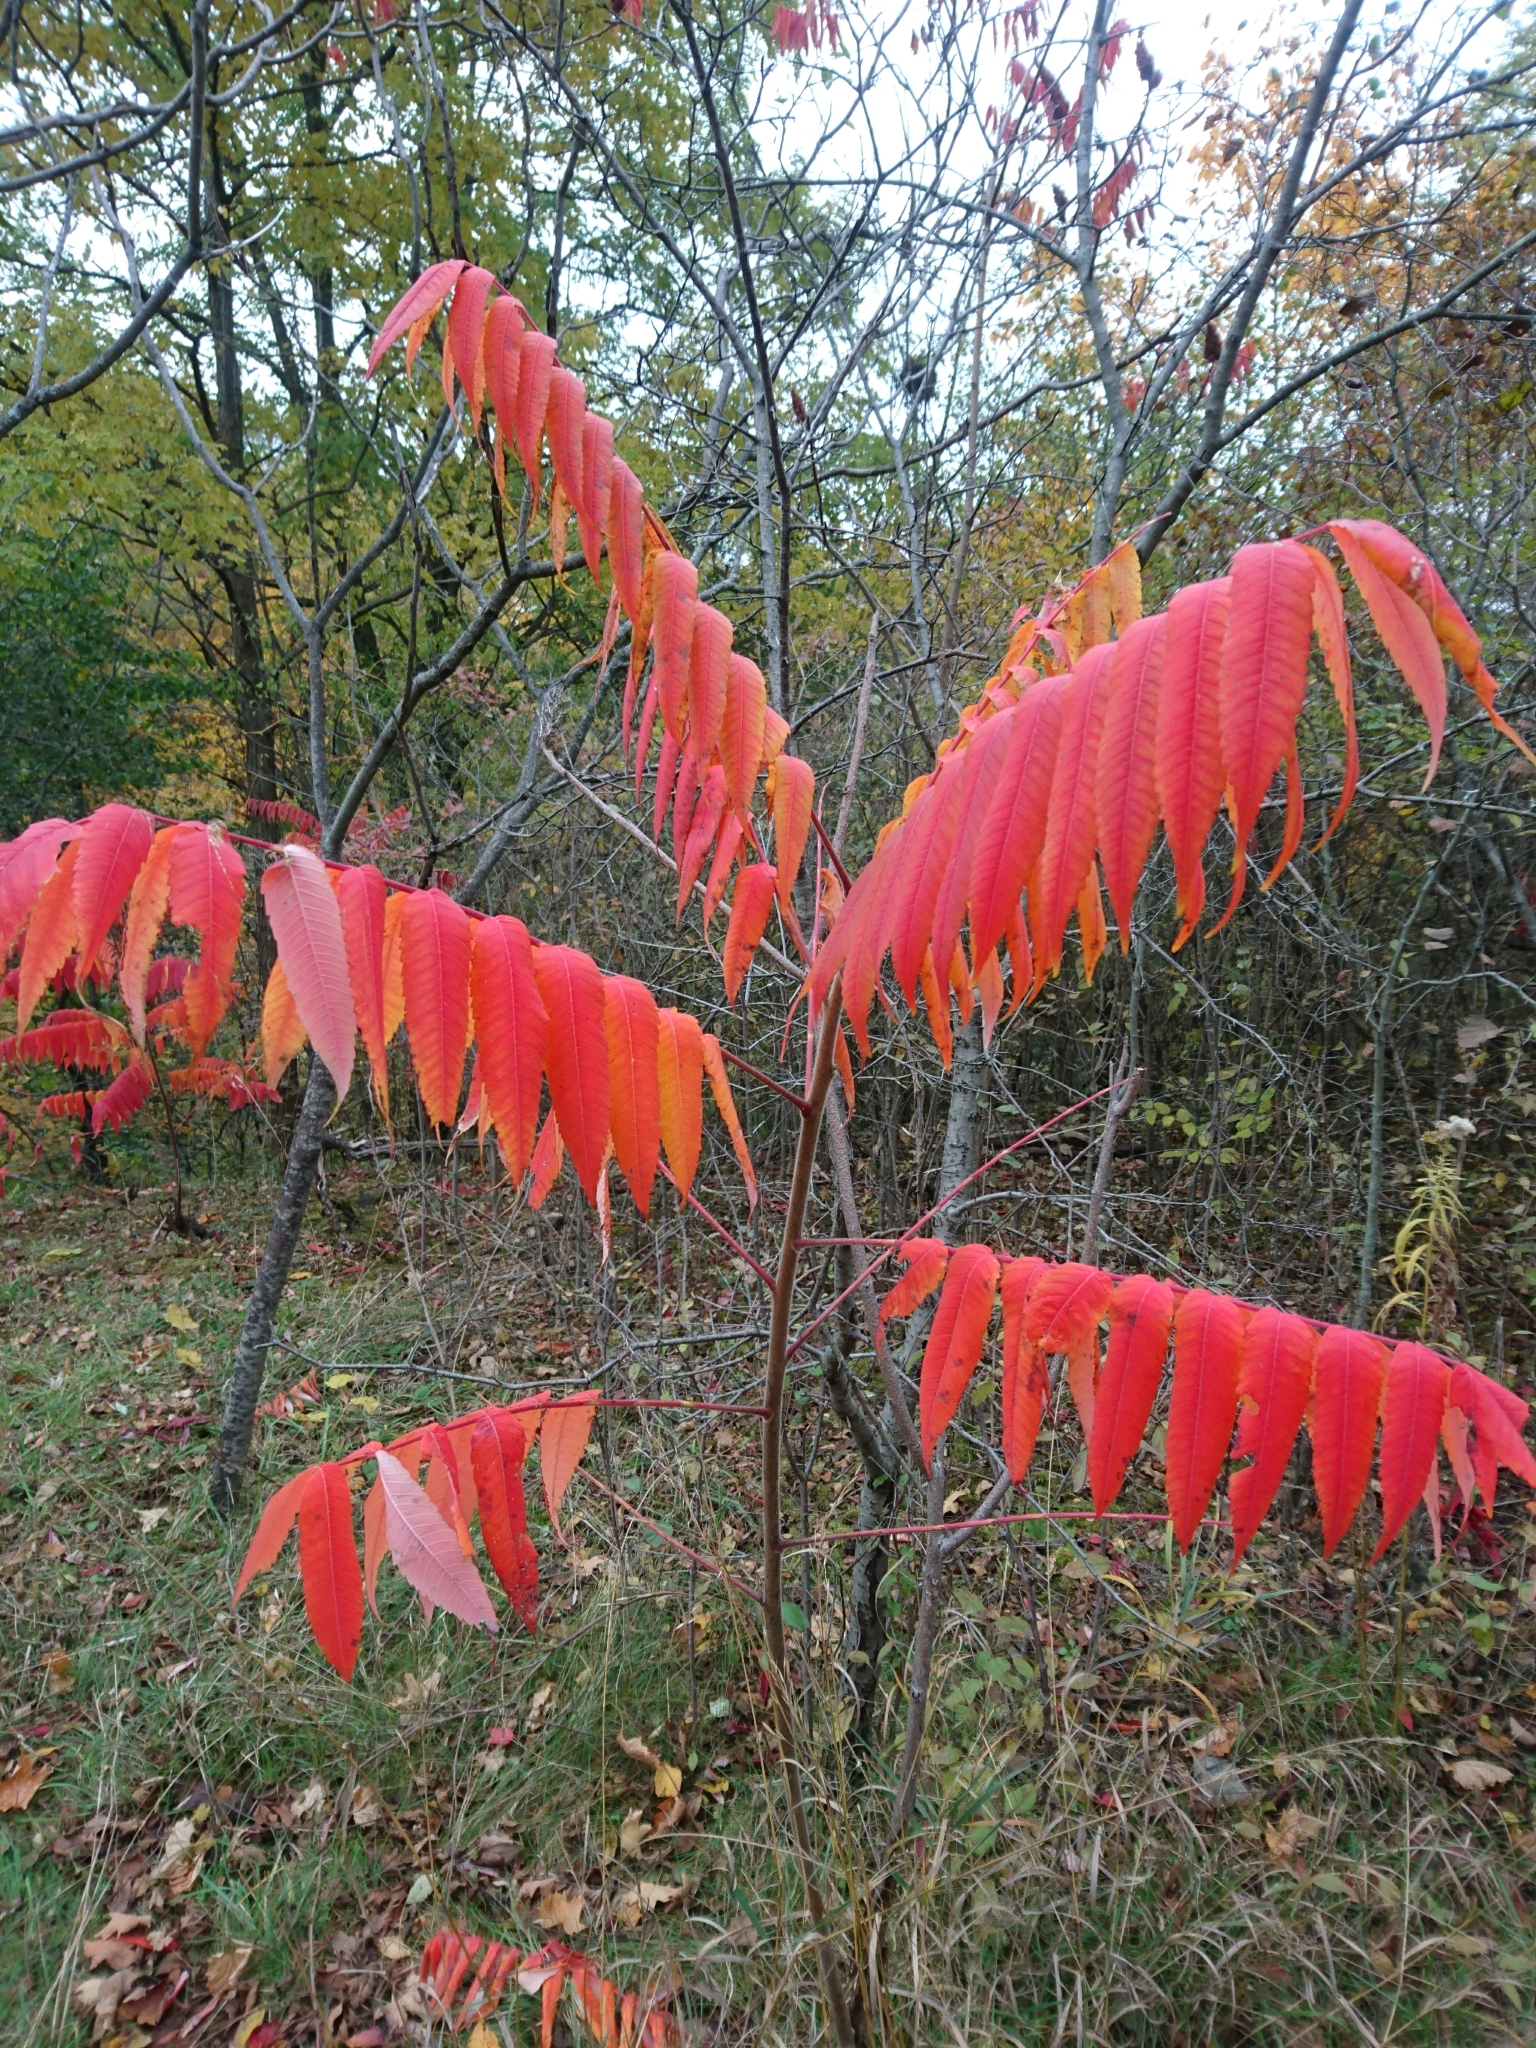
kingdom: Plantae
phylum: Tracheophyta
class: Magnoliopsida
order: Sapindales
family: Anacardiaceae
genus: Rhus
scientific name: Rhus typhina
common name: Staghorn sumac
